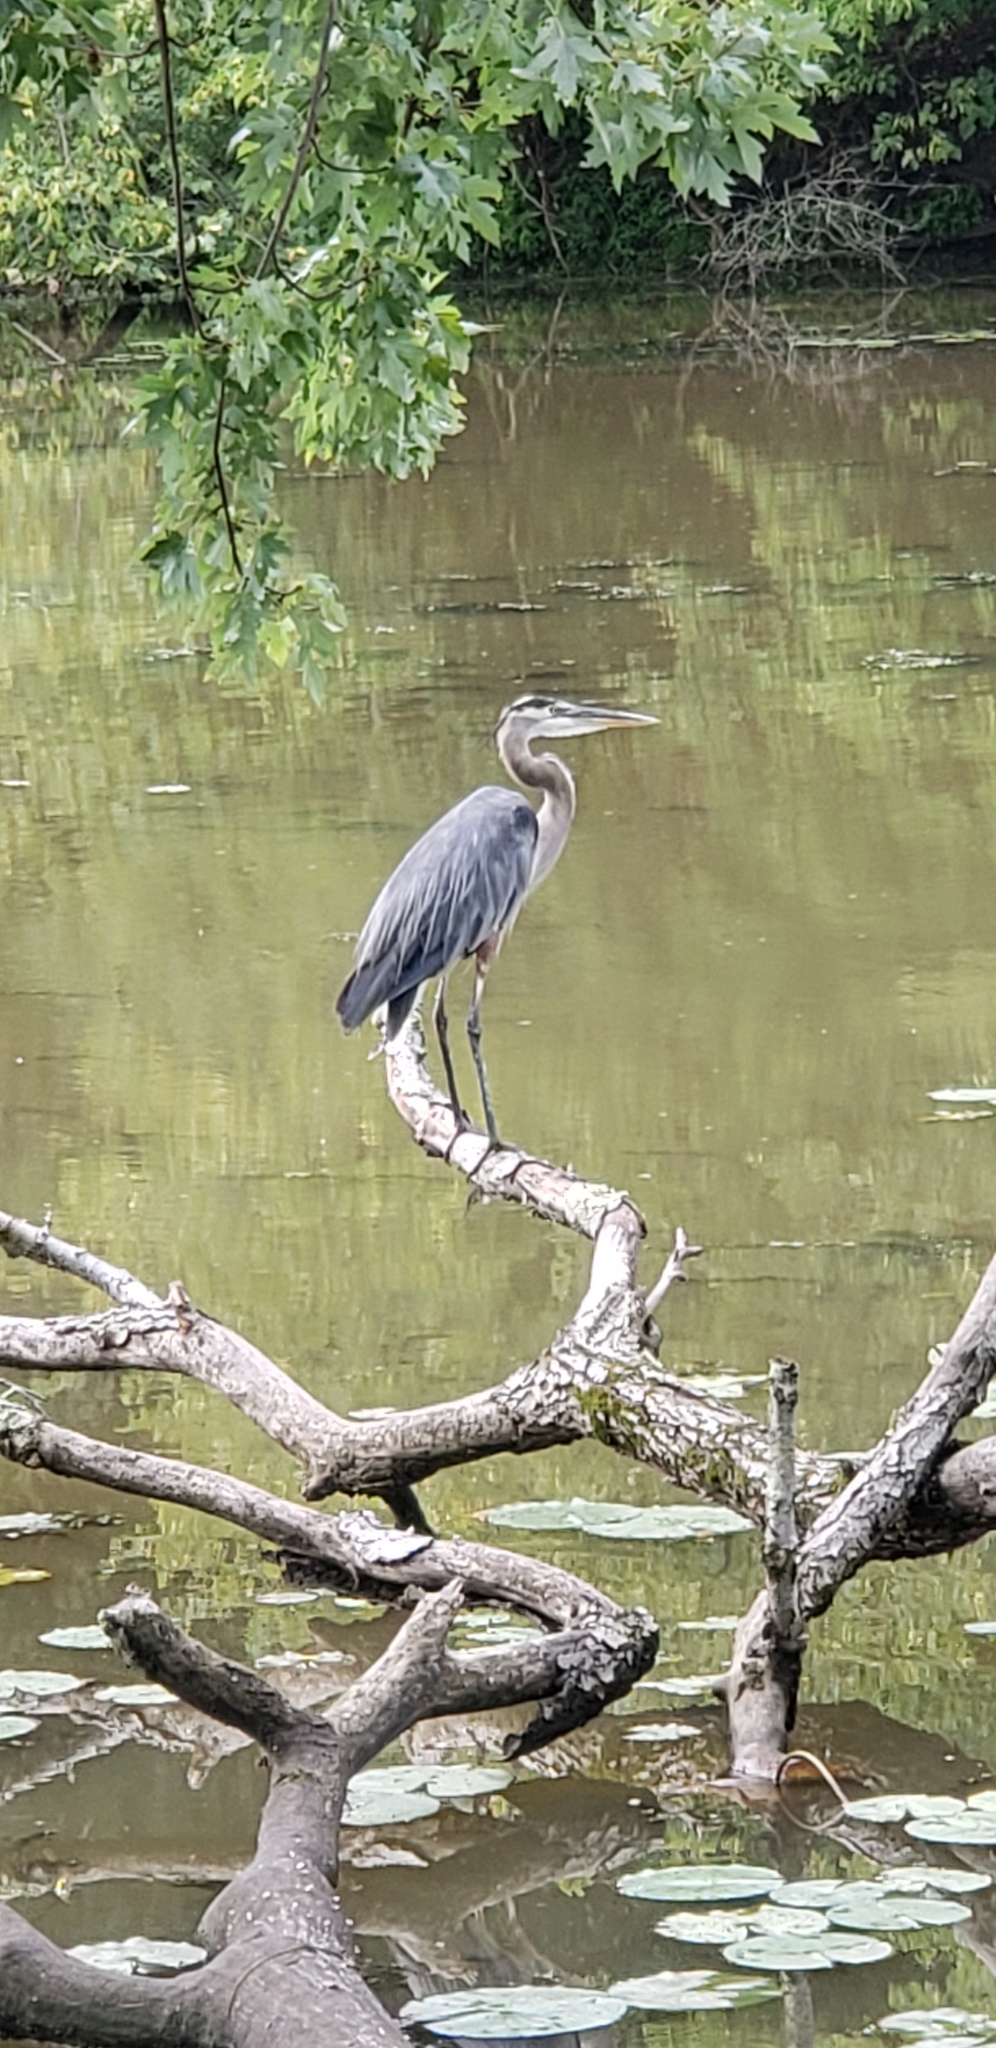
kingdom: Animalia
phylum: Chordata
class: Aves
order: Pelecaniformes
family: Ardeidae
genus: Ardea
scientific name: Ardea herodias
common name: Great blue heron
